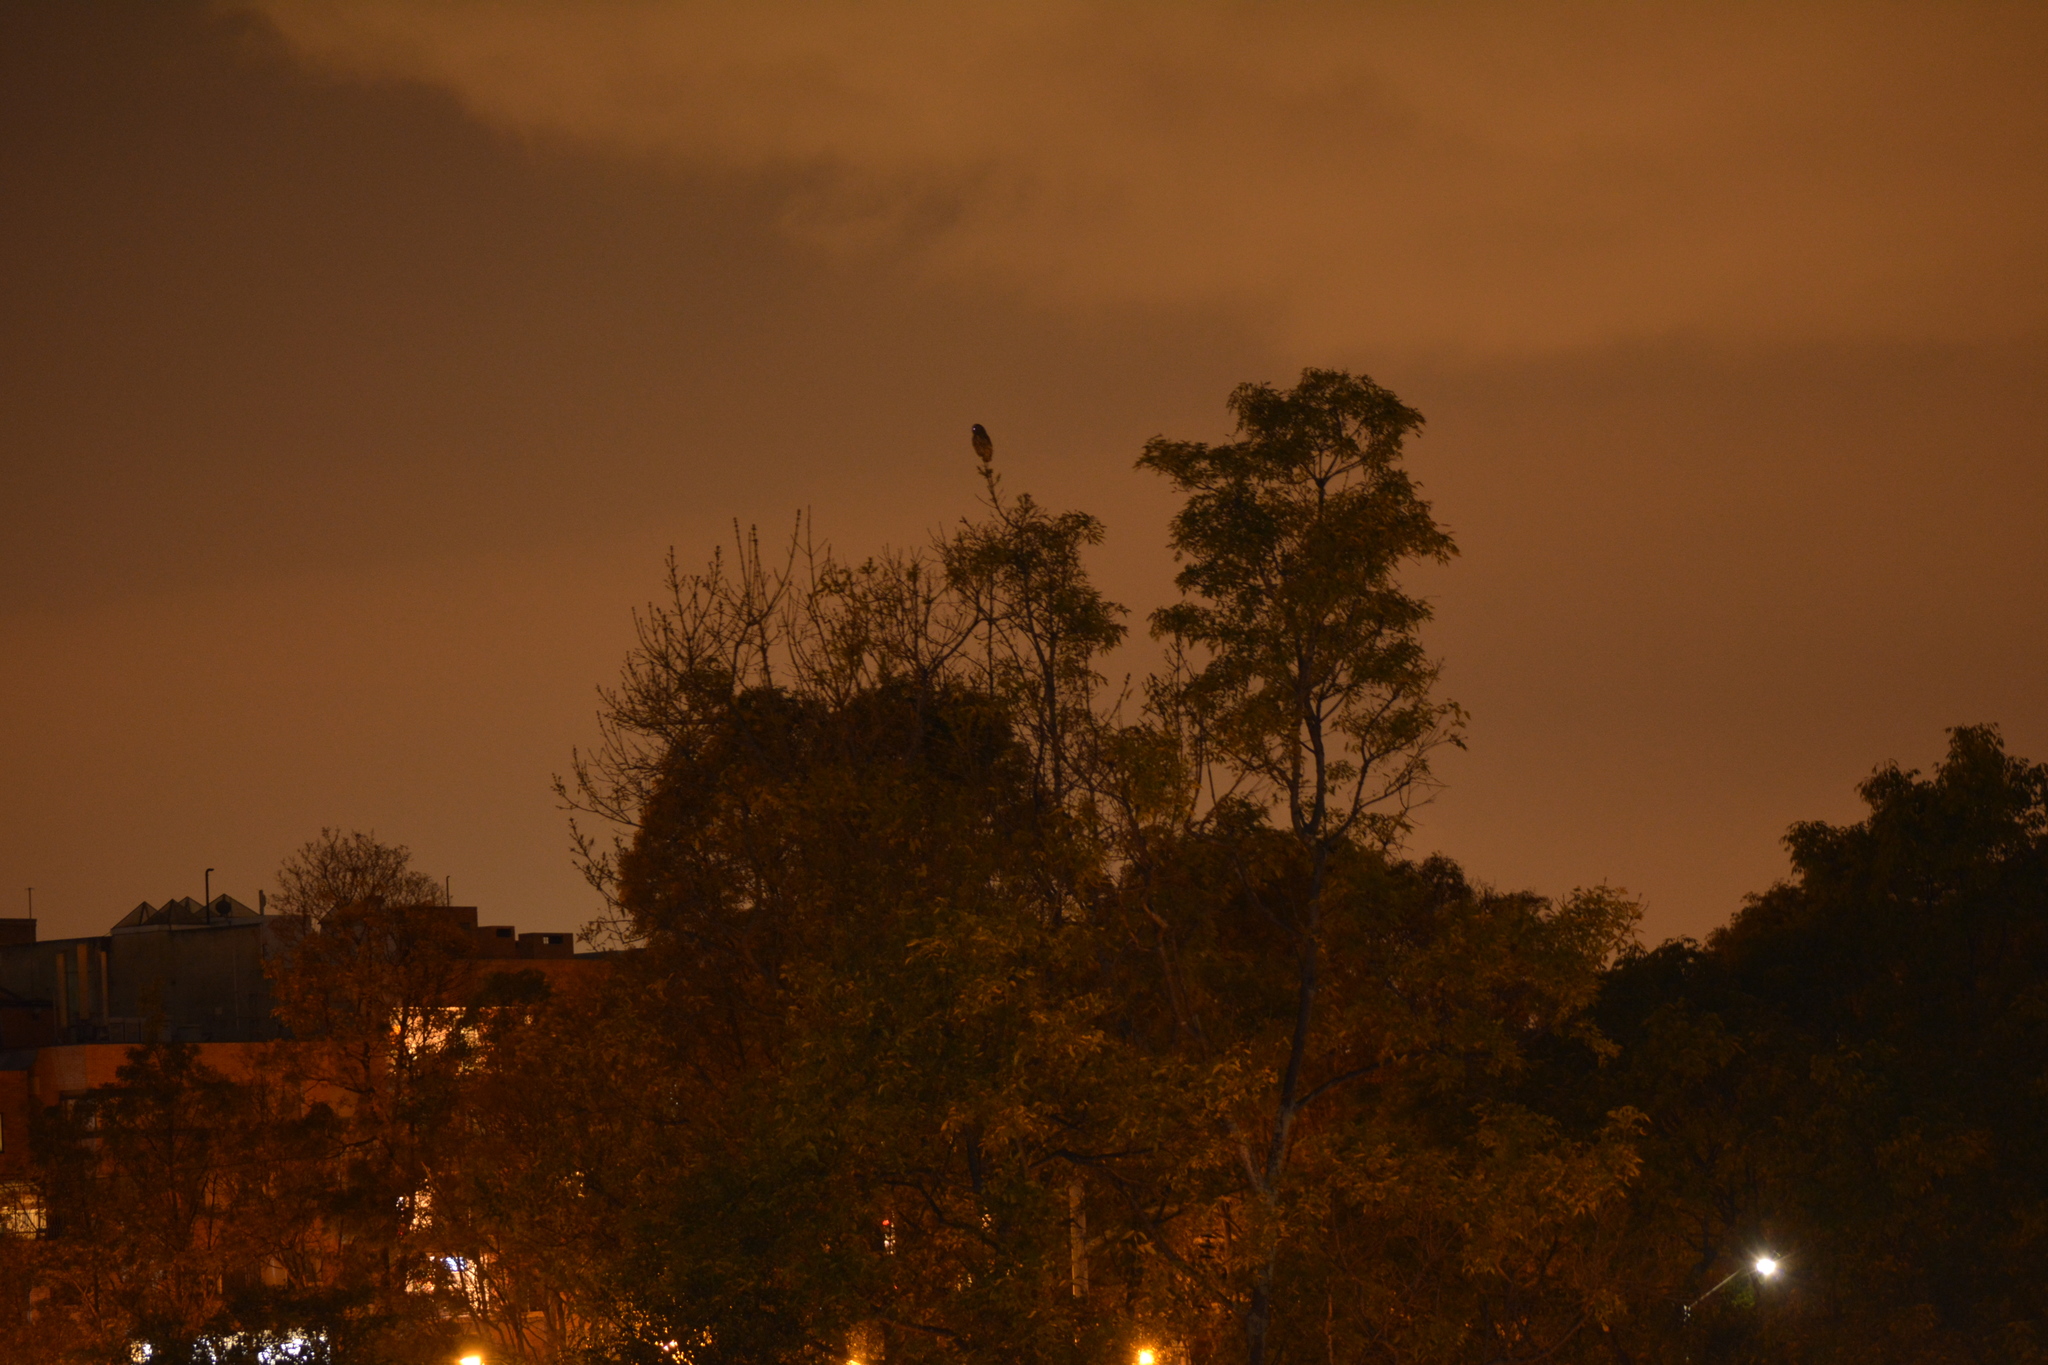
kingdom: Animalia
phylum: Chordata
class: Aves
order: Strigiformes
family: Strigidae
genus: Asio
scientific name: Asio stygius
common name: Stygian owl
